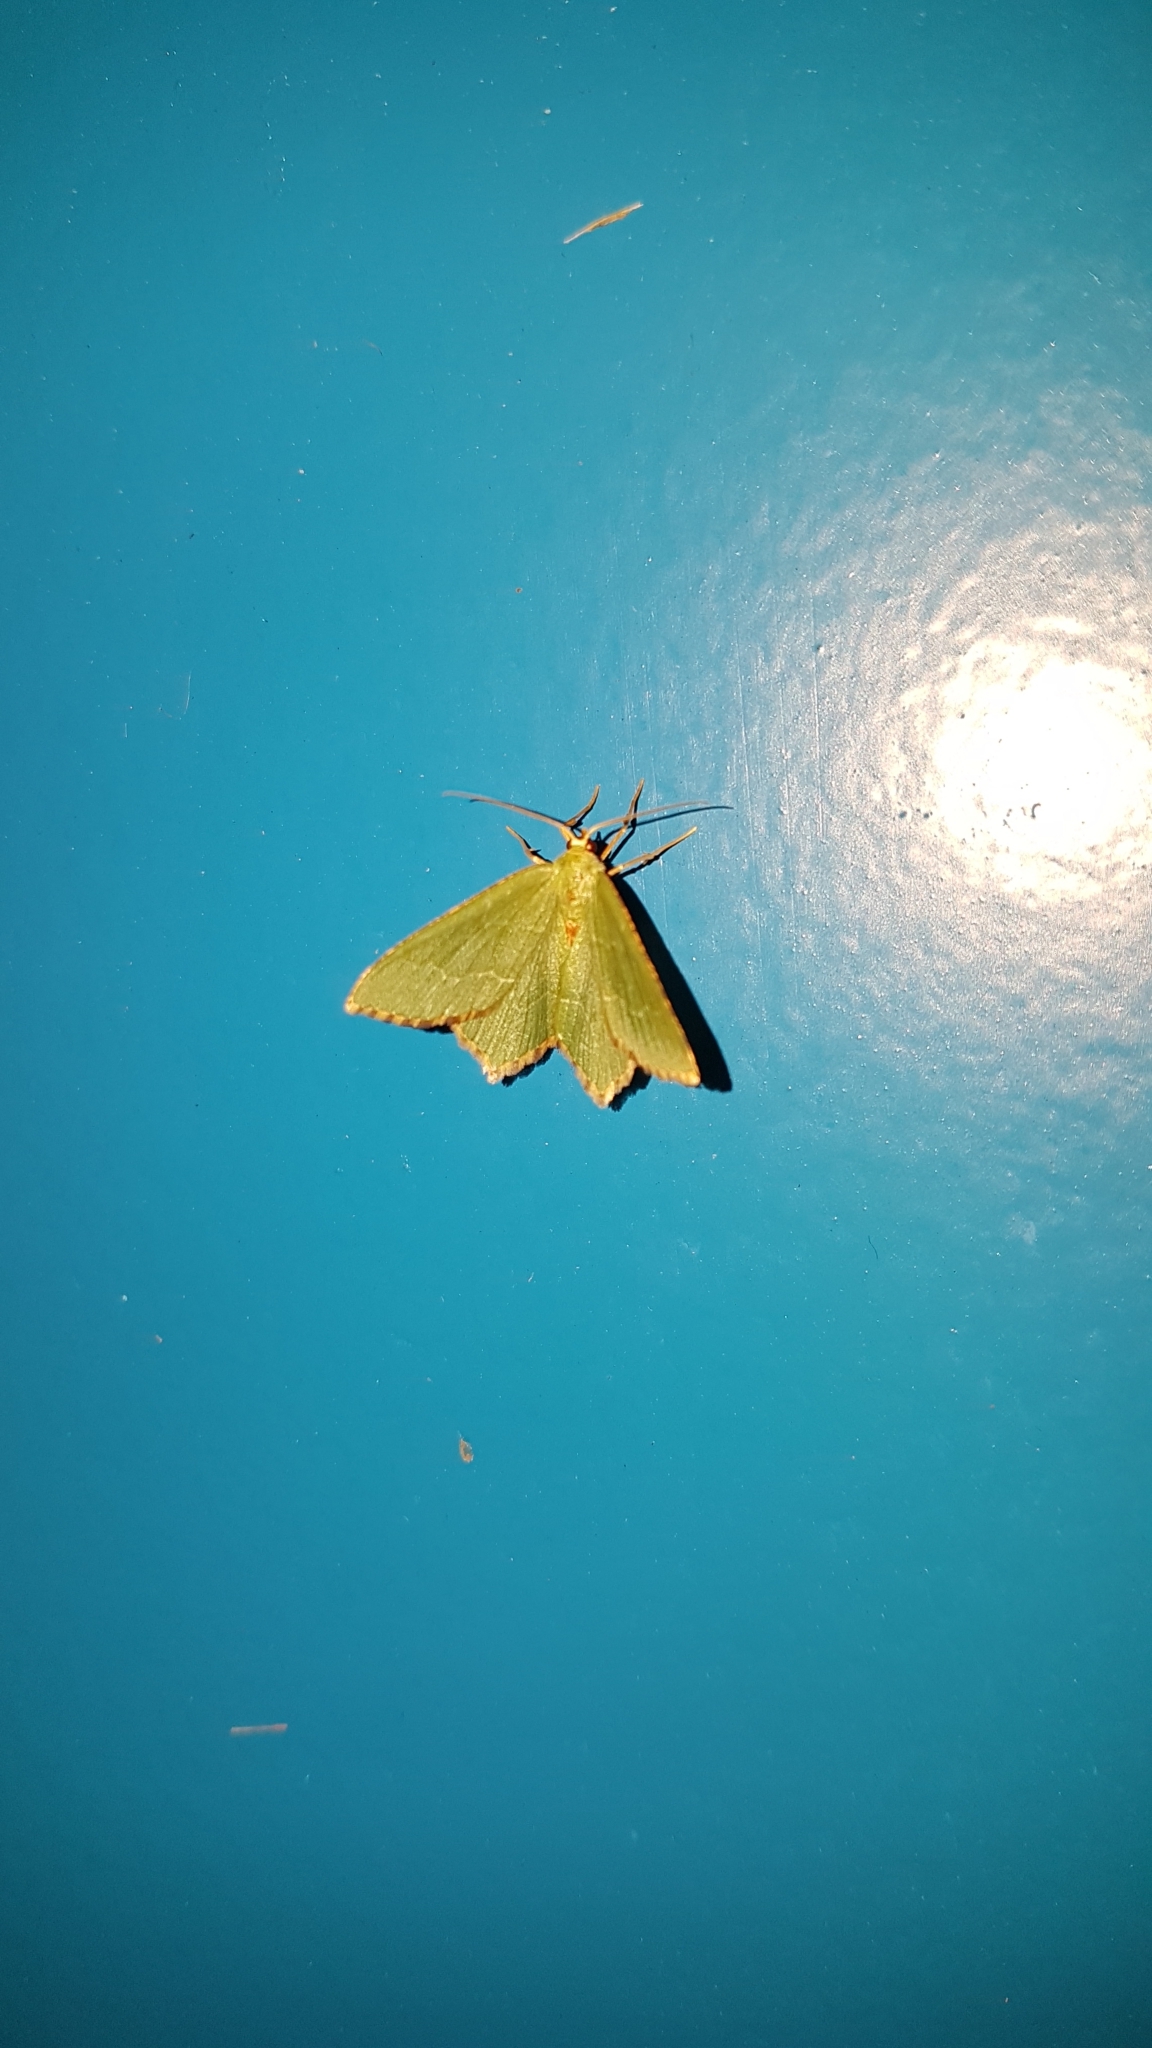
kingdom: Animalia
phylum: Arthropoda
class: Insecta
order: Lepidoptera
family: Geometridae
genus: Hemithea
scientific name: Hemithea aestivaria
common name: Common emerald
